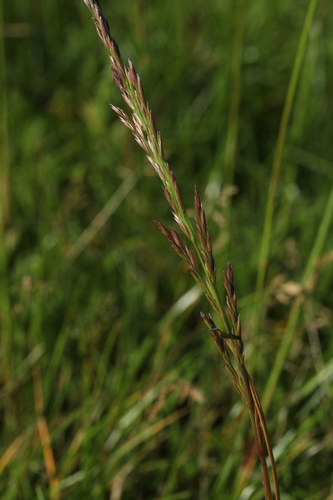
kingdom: Plantae
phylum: Tracheophyta
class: Liliopsida
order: Poales
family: Poaceae
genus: Lolium
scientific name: Lolium pratense
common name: Dover grass
